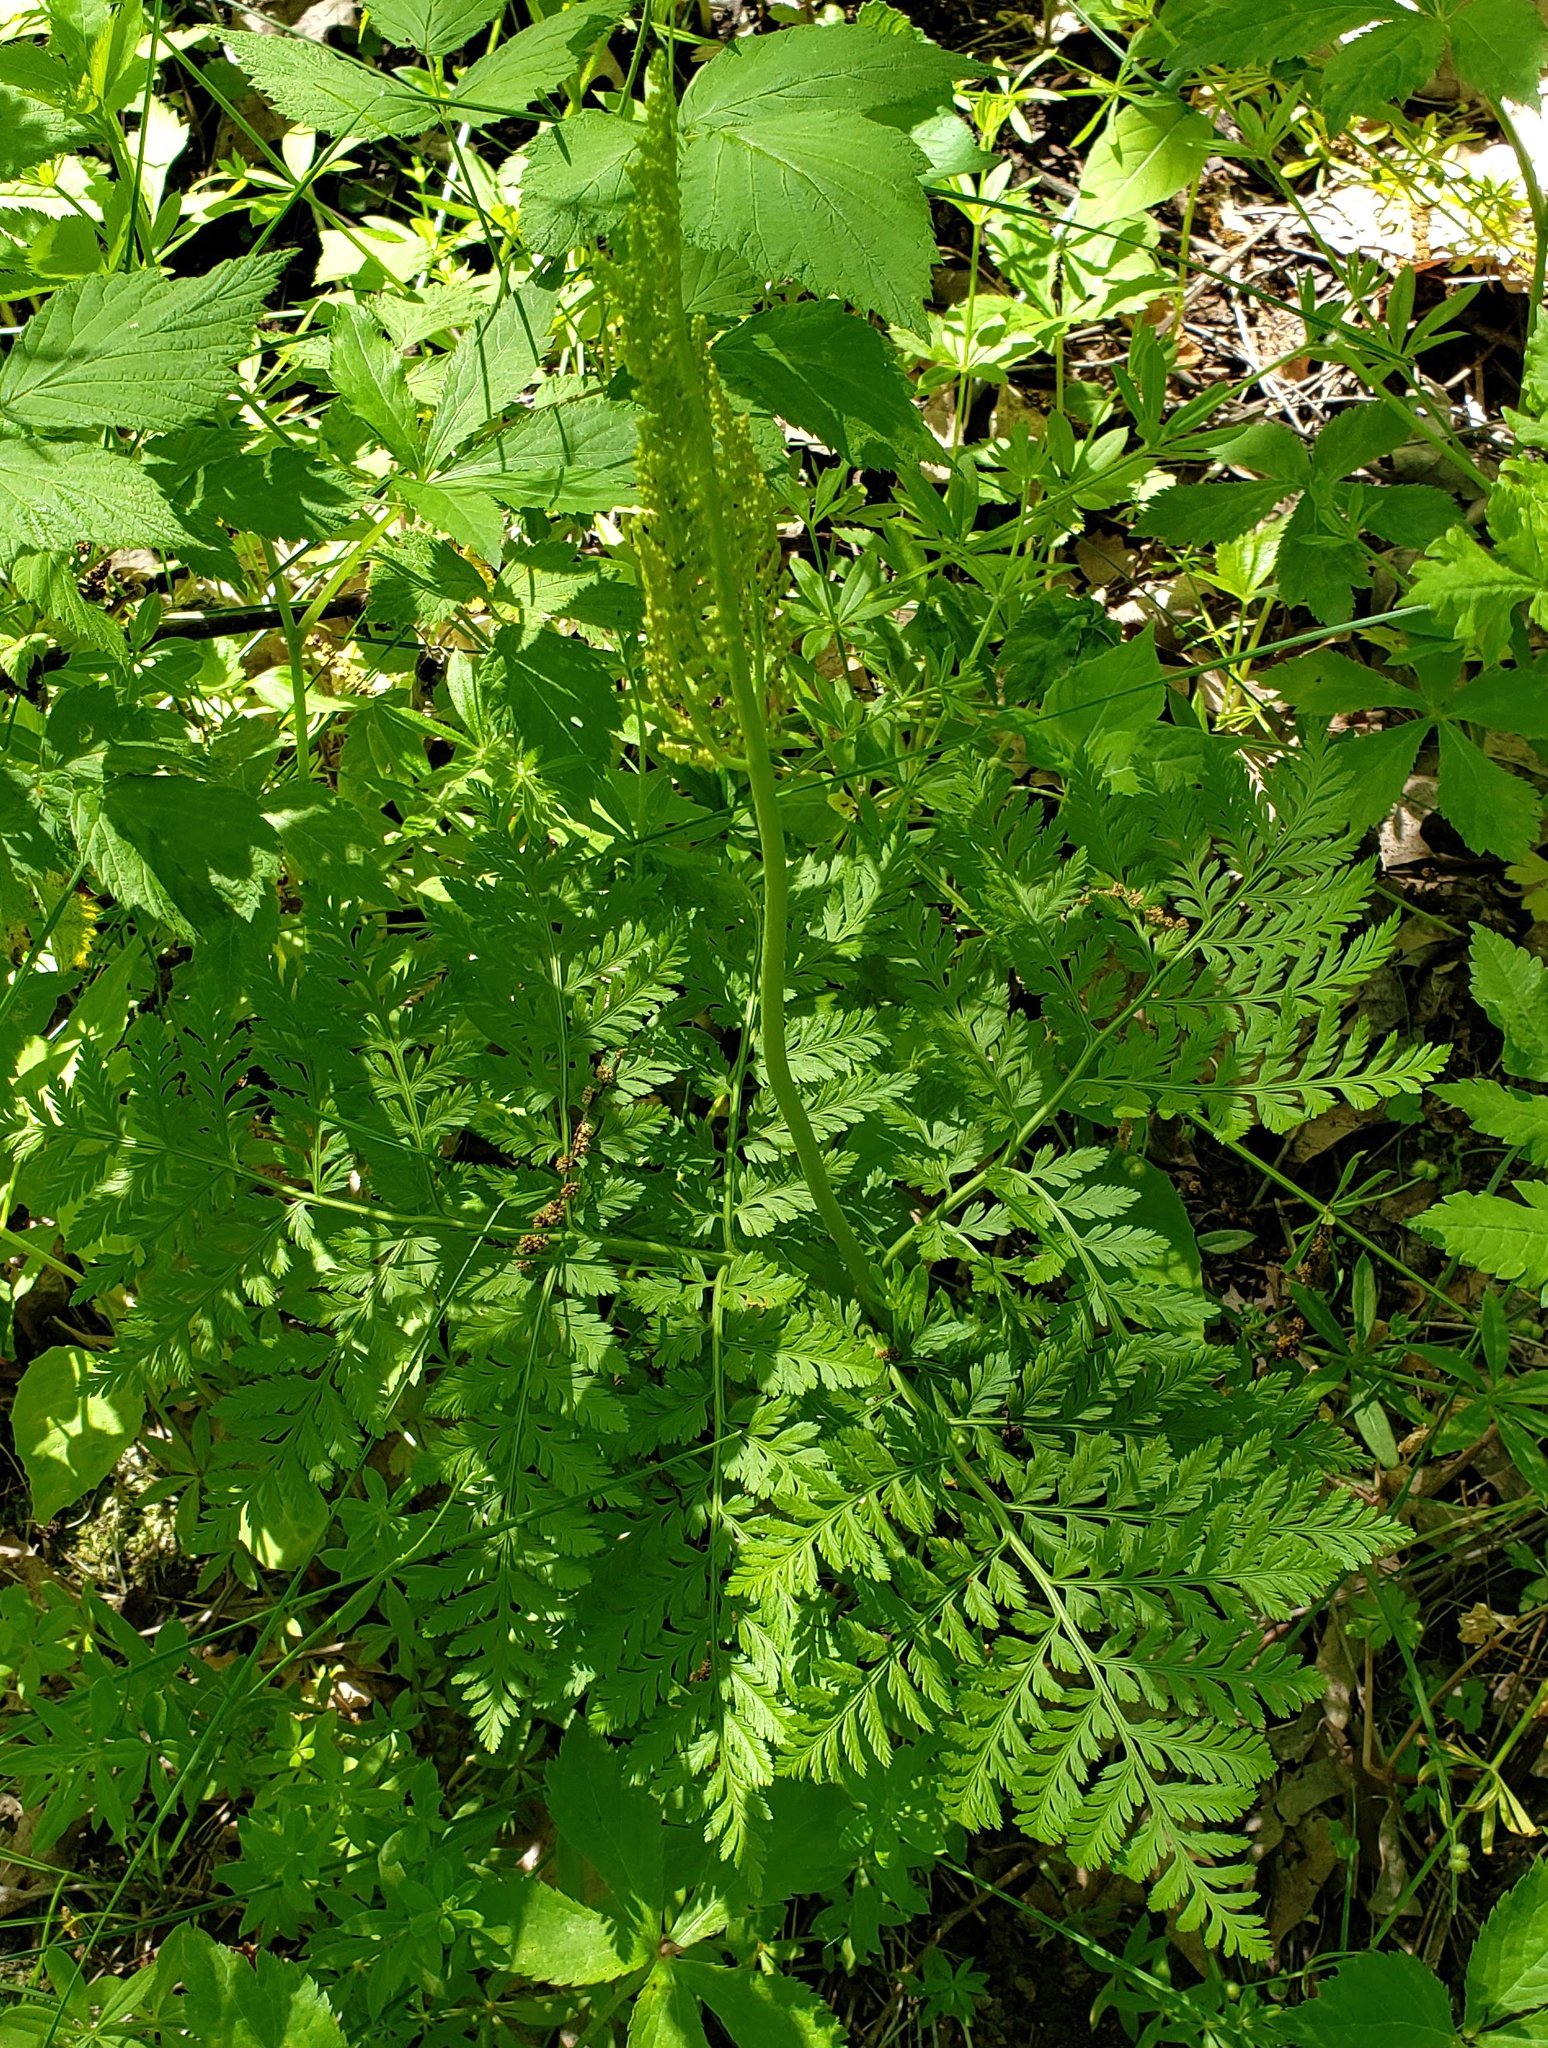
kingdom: Plantae
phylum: Tracheophyta
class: Polypodiopsida
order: Ophioglossales
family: Ophioglossaceae
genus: Botrypus
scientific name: Botrypus virginianus
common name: Common grapefern
